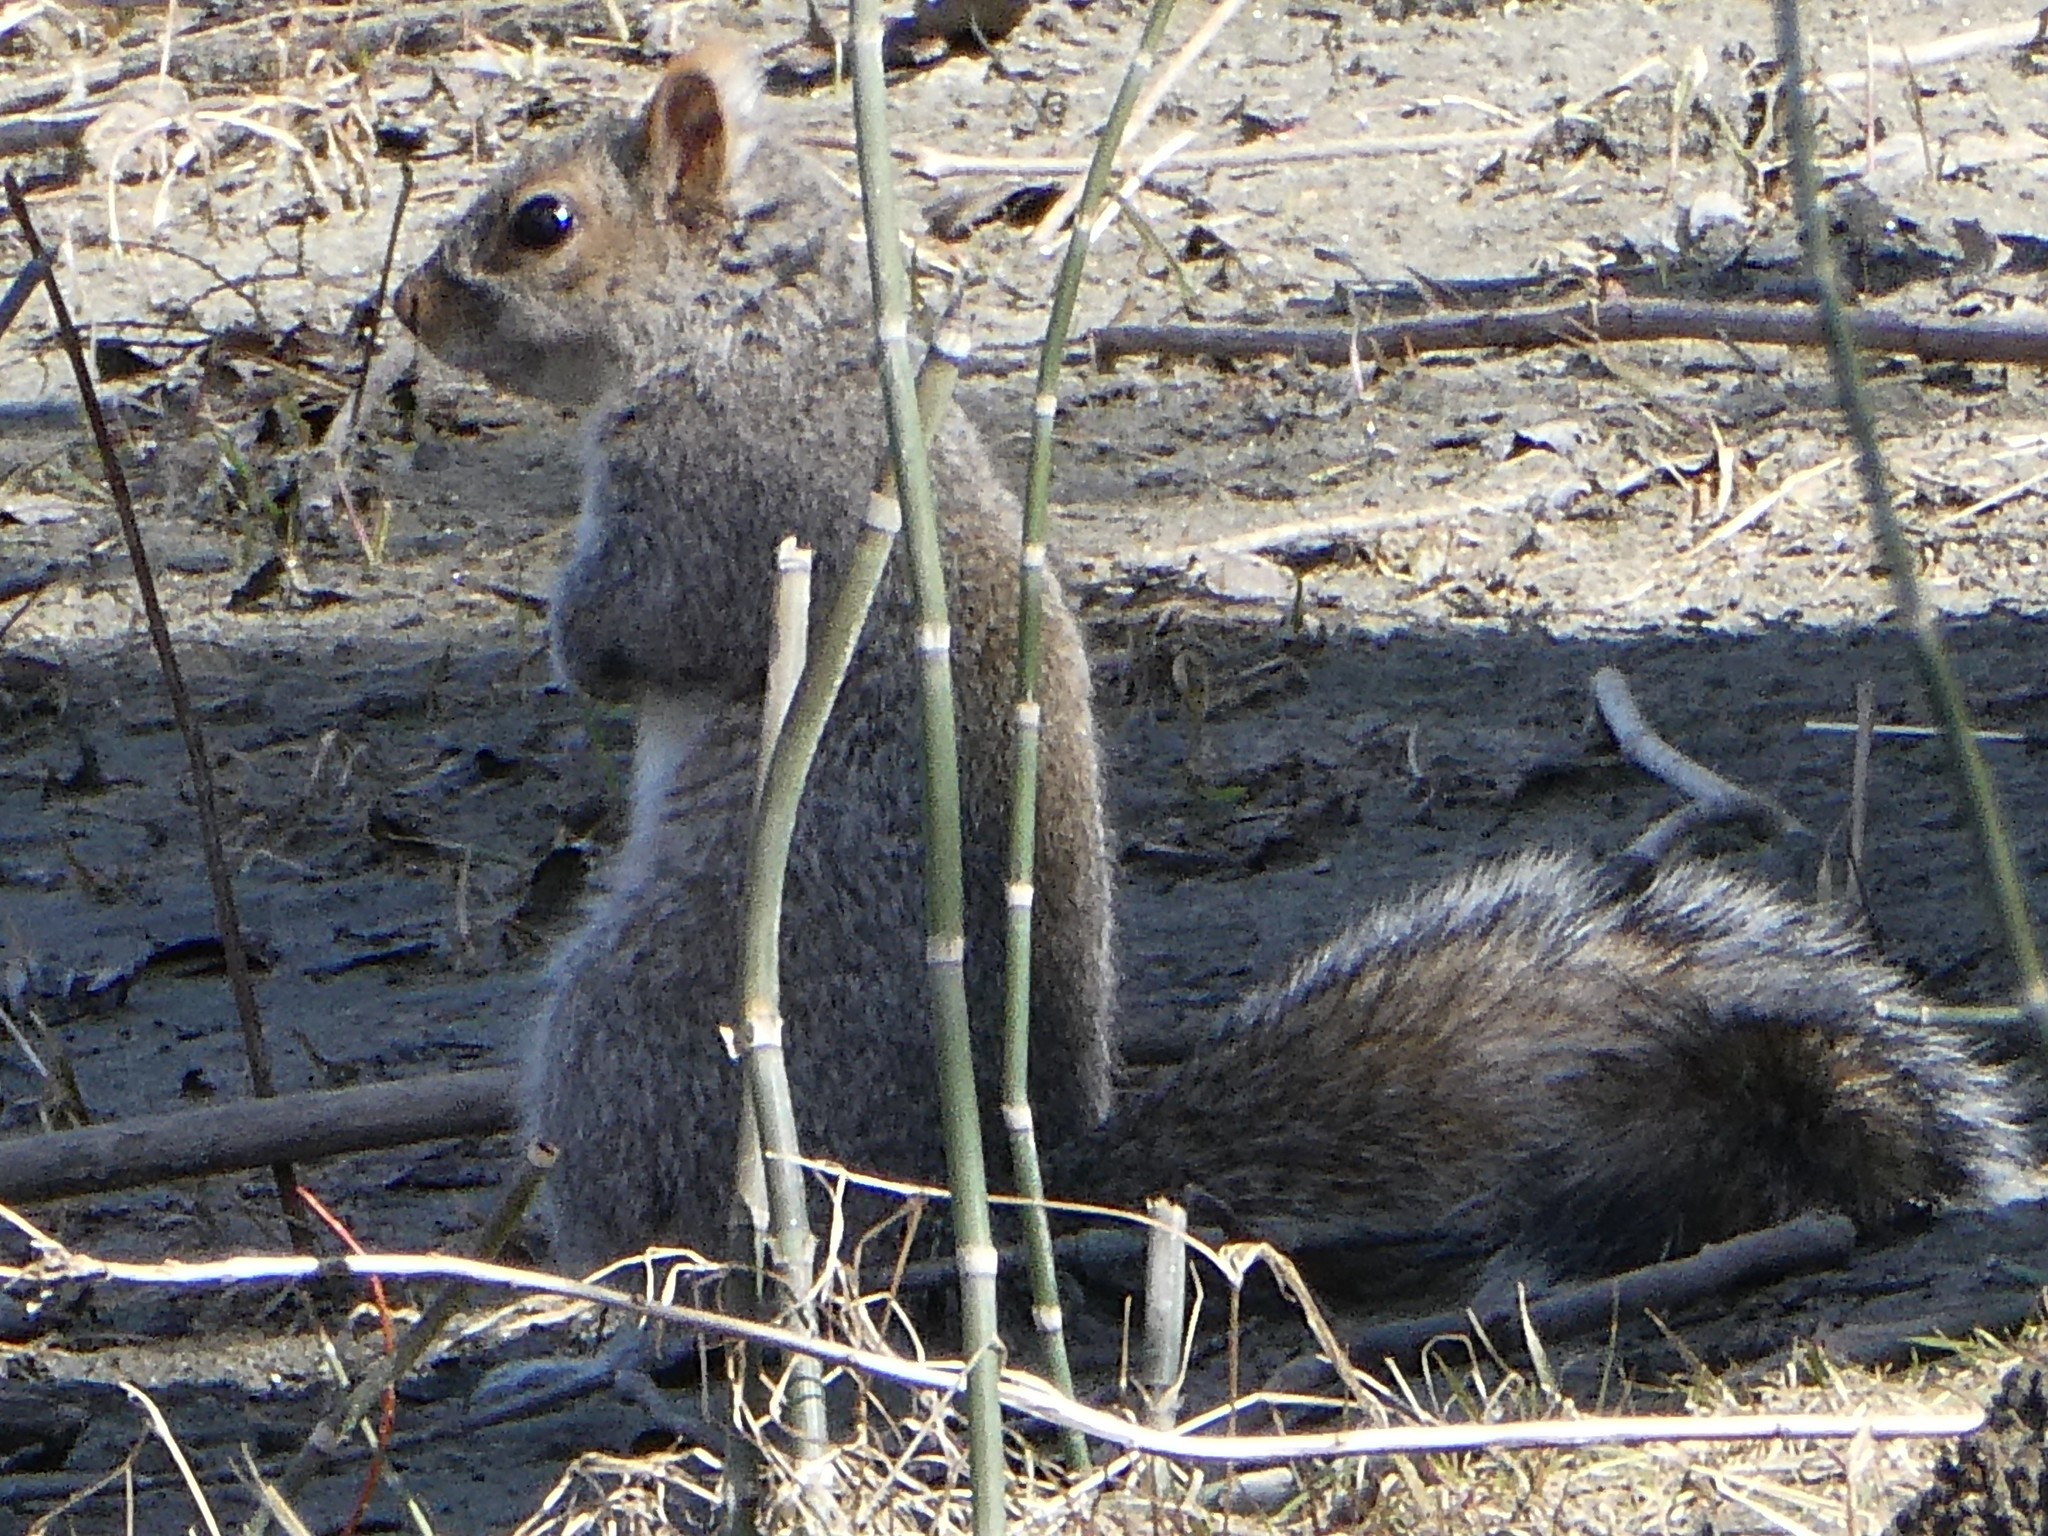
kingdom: Animalia
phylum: Chordata
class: Mammalia
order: Rodentia
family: Sciuridae
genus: Sciurus
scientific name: Sciurus carolinensis
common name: Eastern gray squirrel
